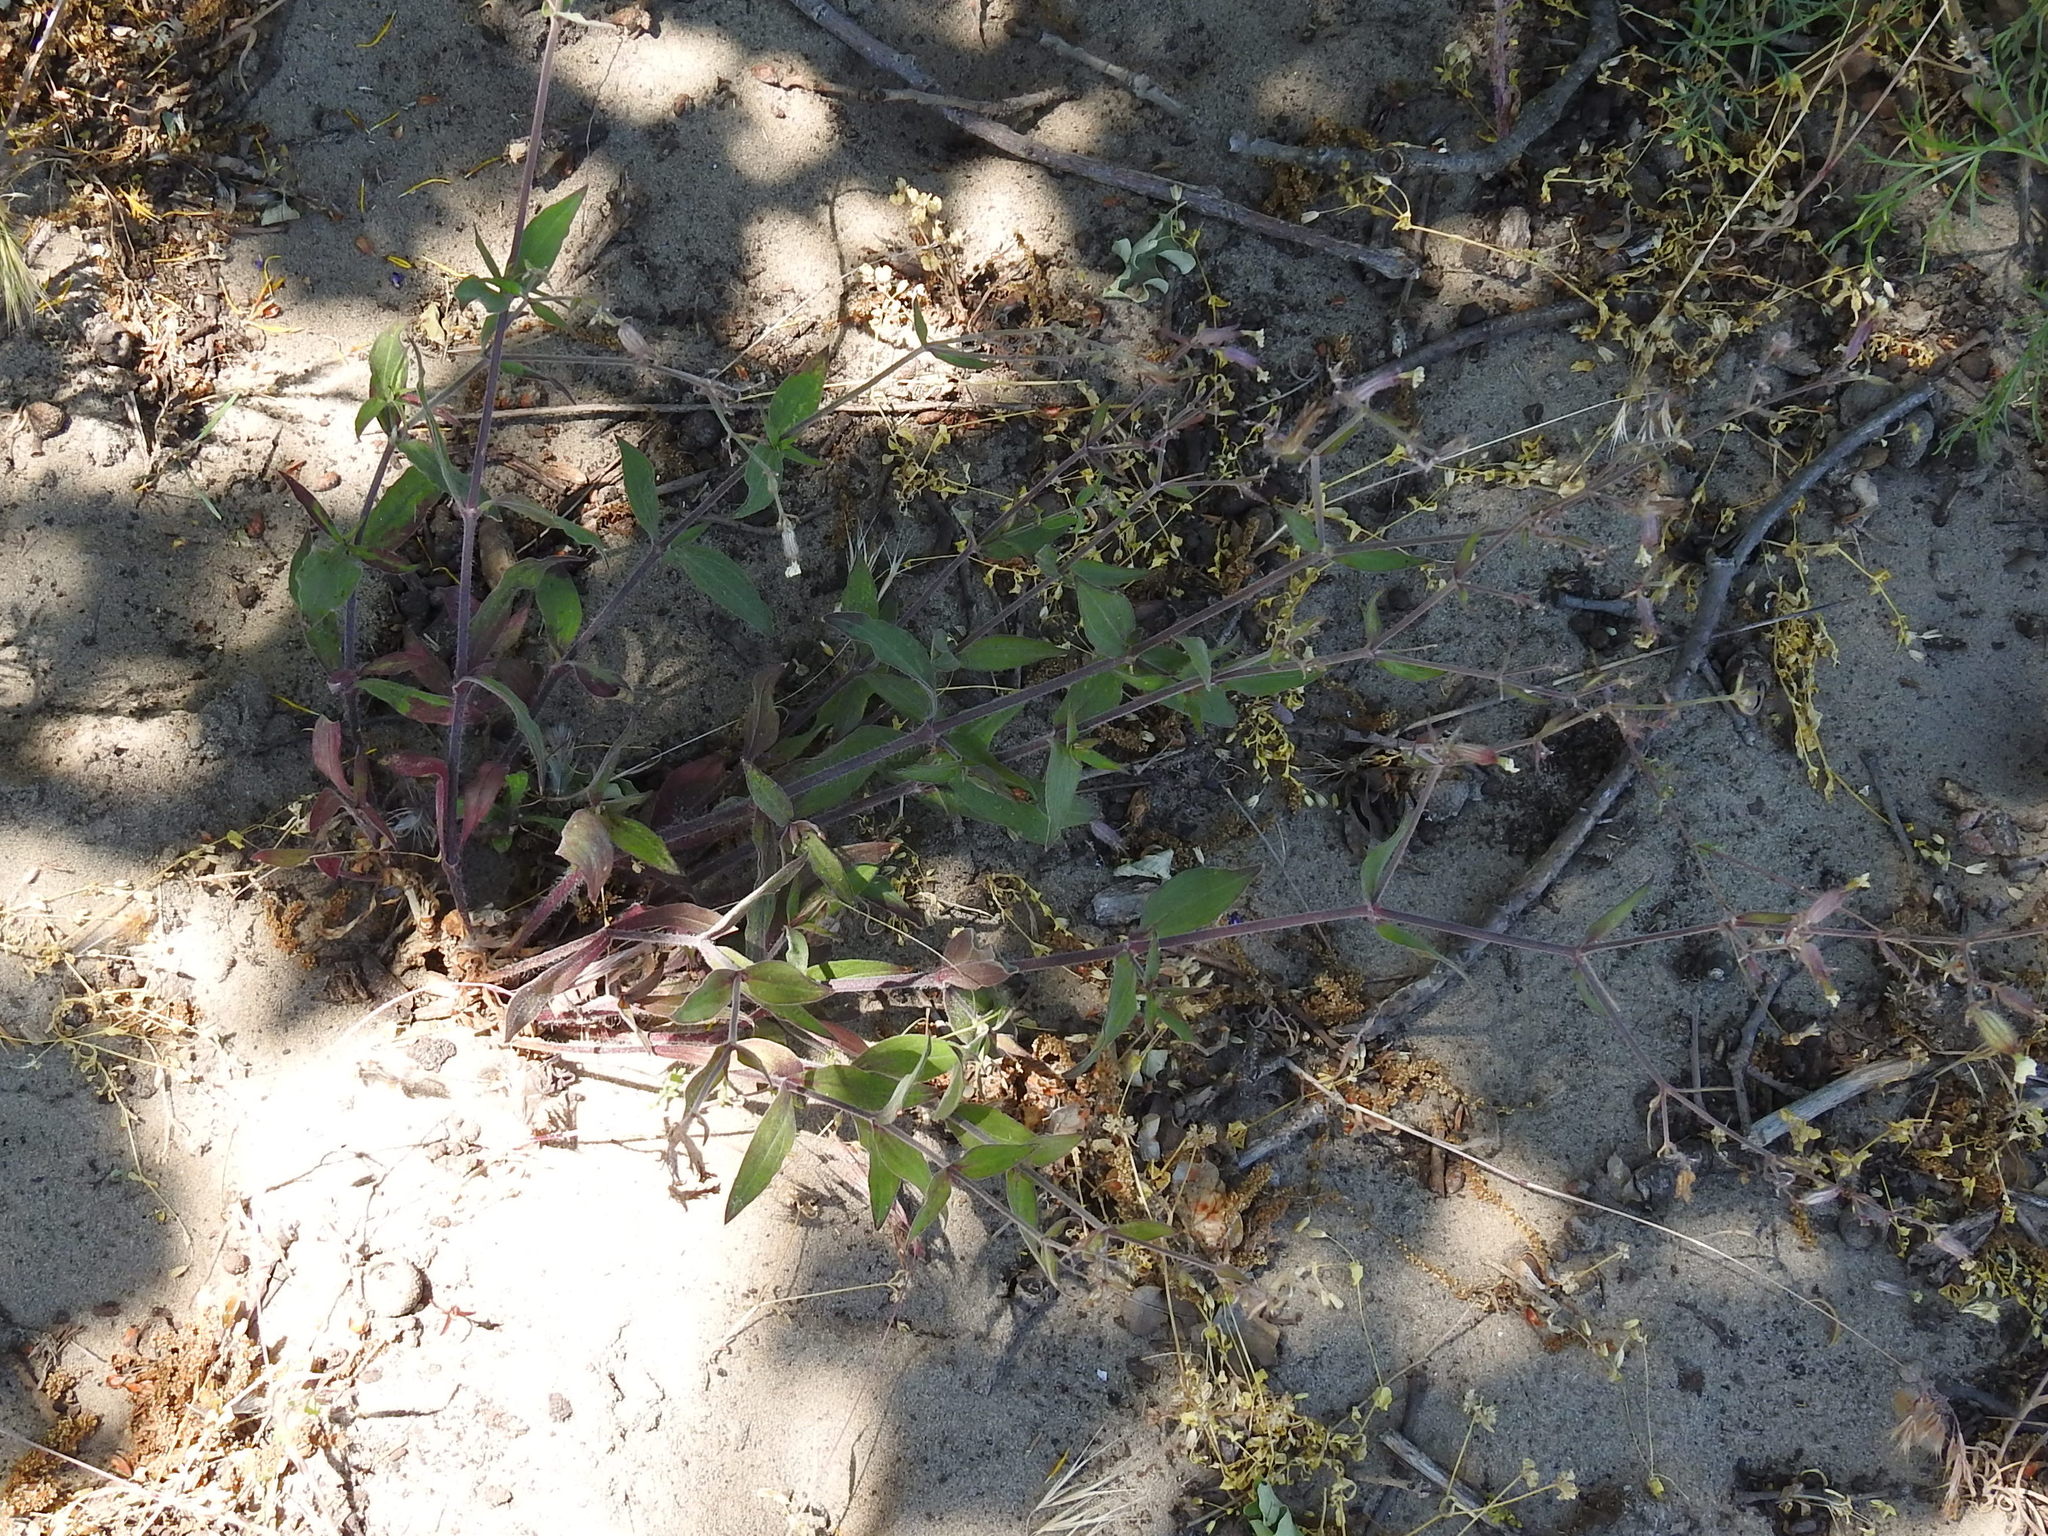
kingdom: Plantae
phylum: Tracheophyta
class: Magnoliopsida
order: Caryophyllales
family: Caryophyllaceae
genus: Silene
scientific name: Silene latifolia
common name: White campion
